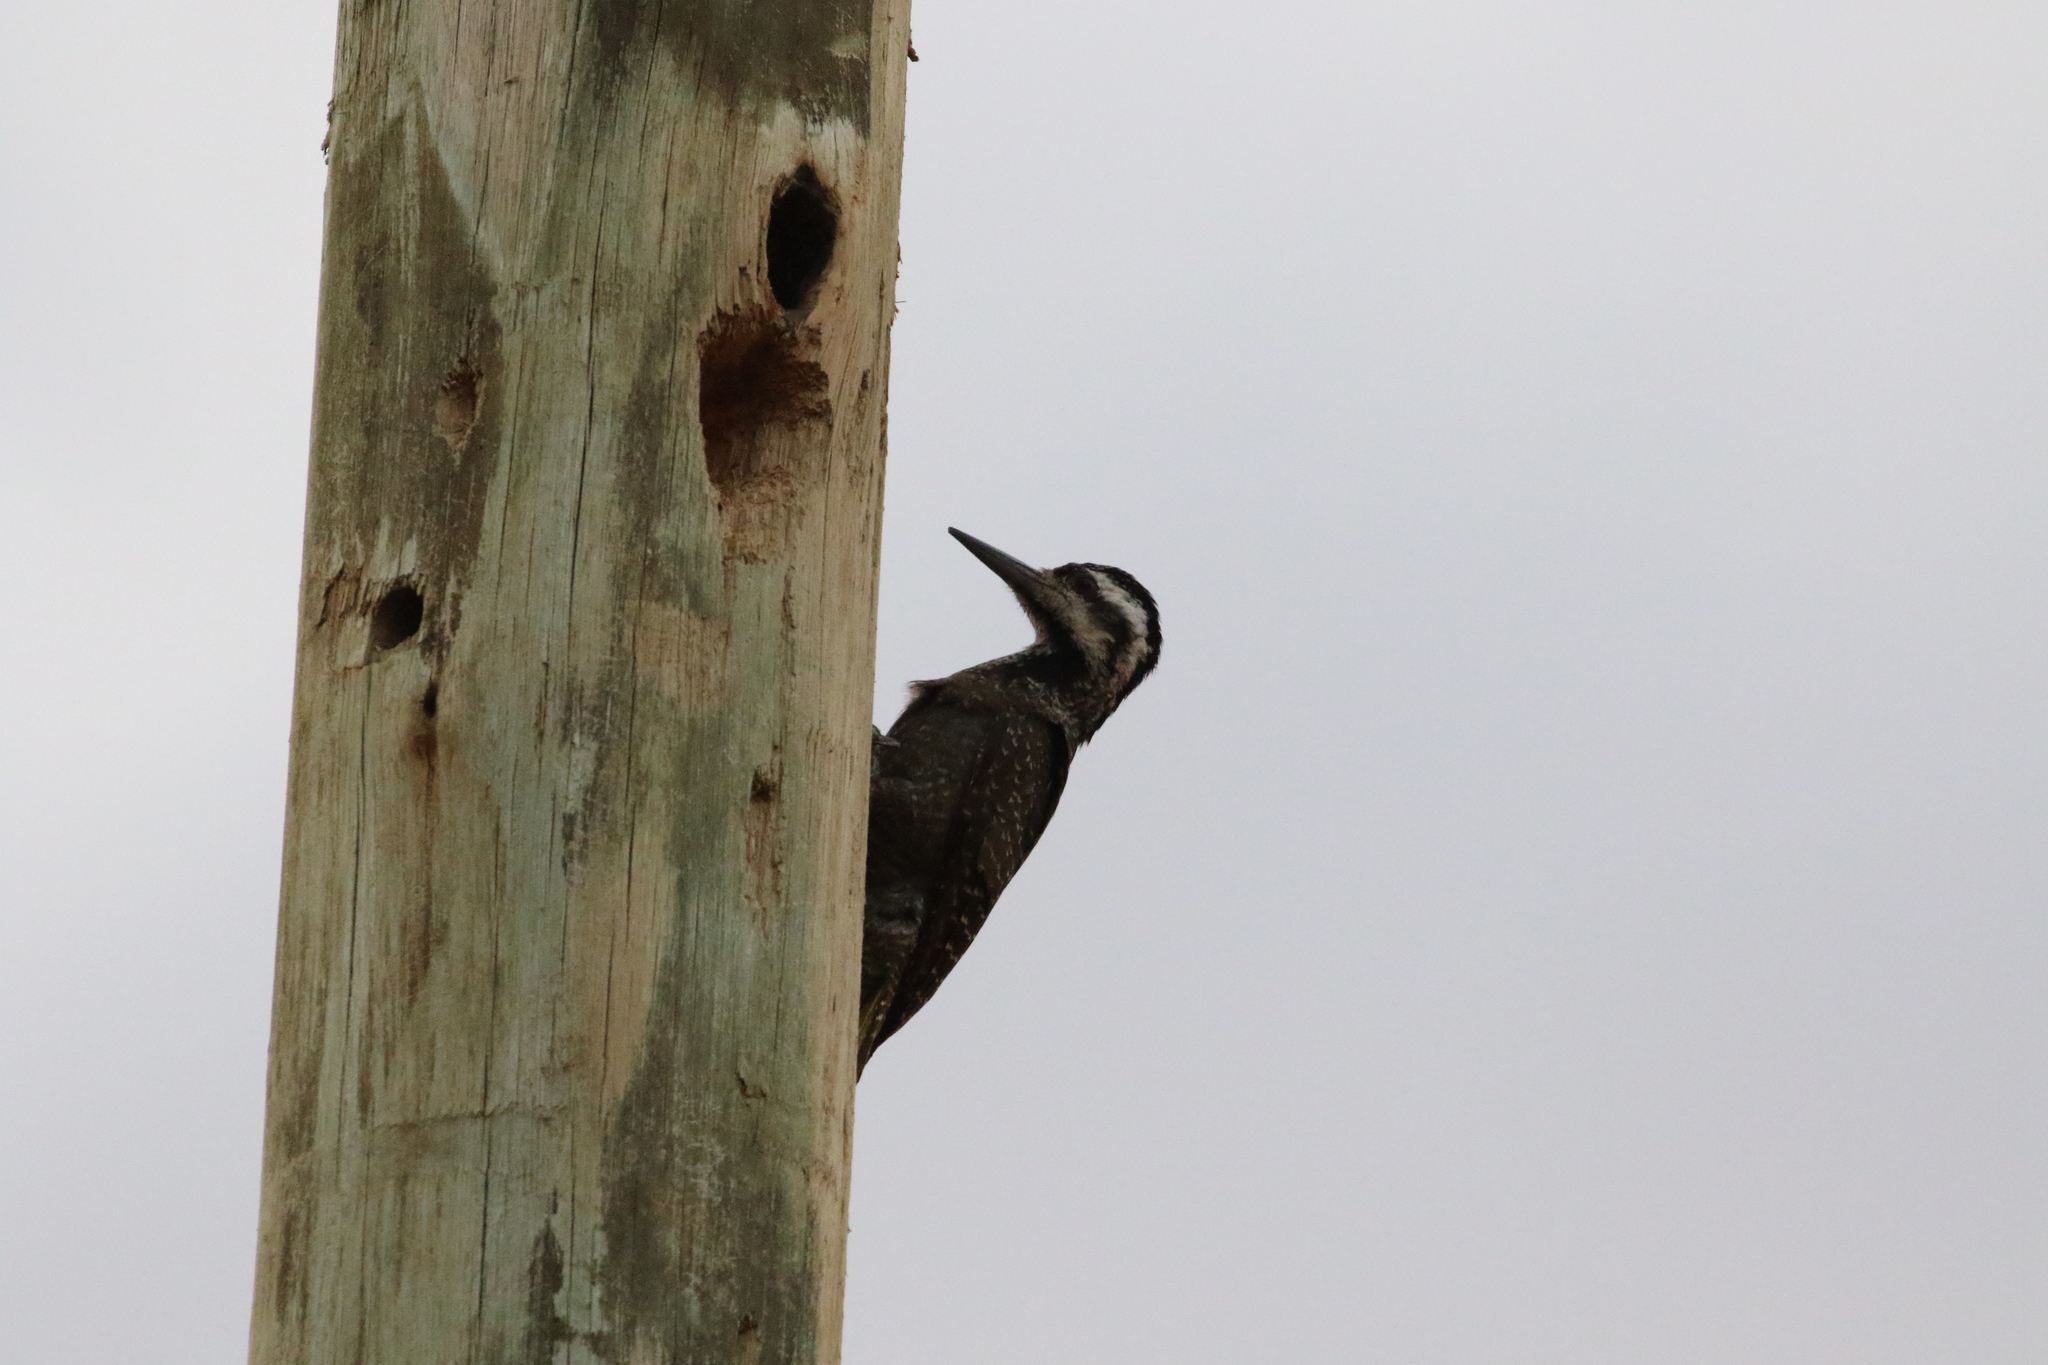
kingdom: Animalia
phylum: Chordata
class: Aves
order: Piciformes
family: Picidae
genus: Chloropicus
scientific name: Chloropicus namaquus
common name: Bearded woodpecker
